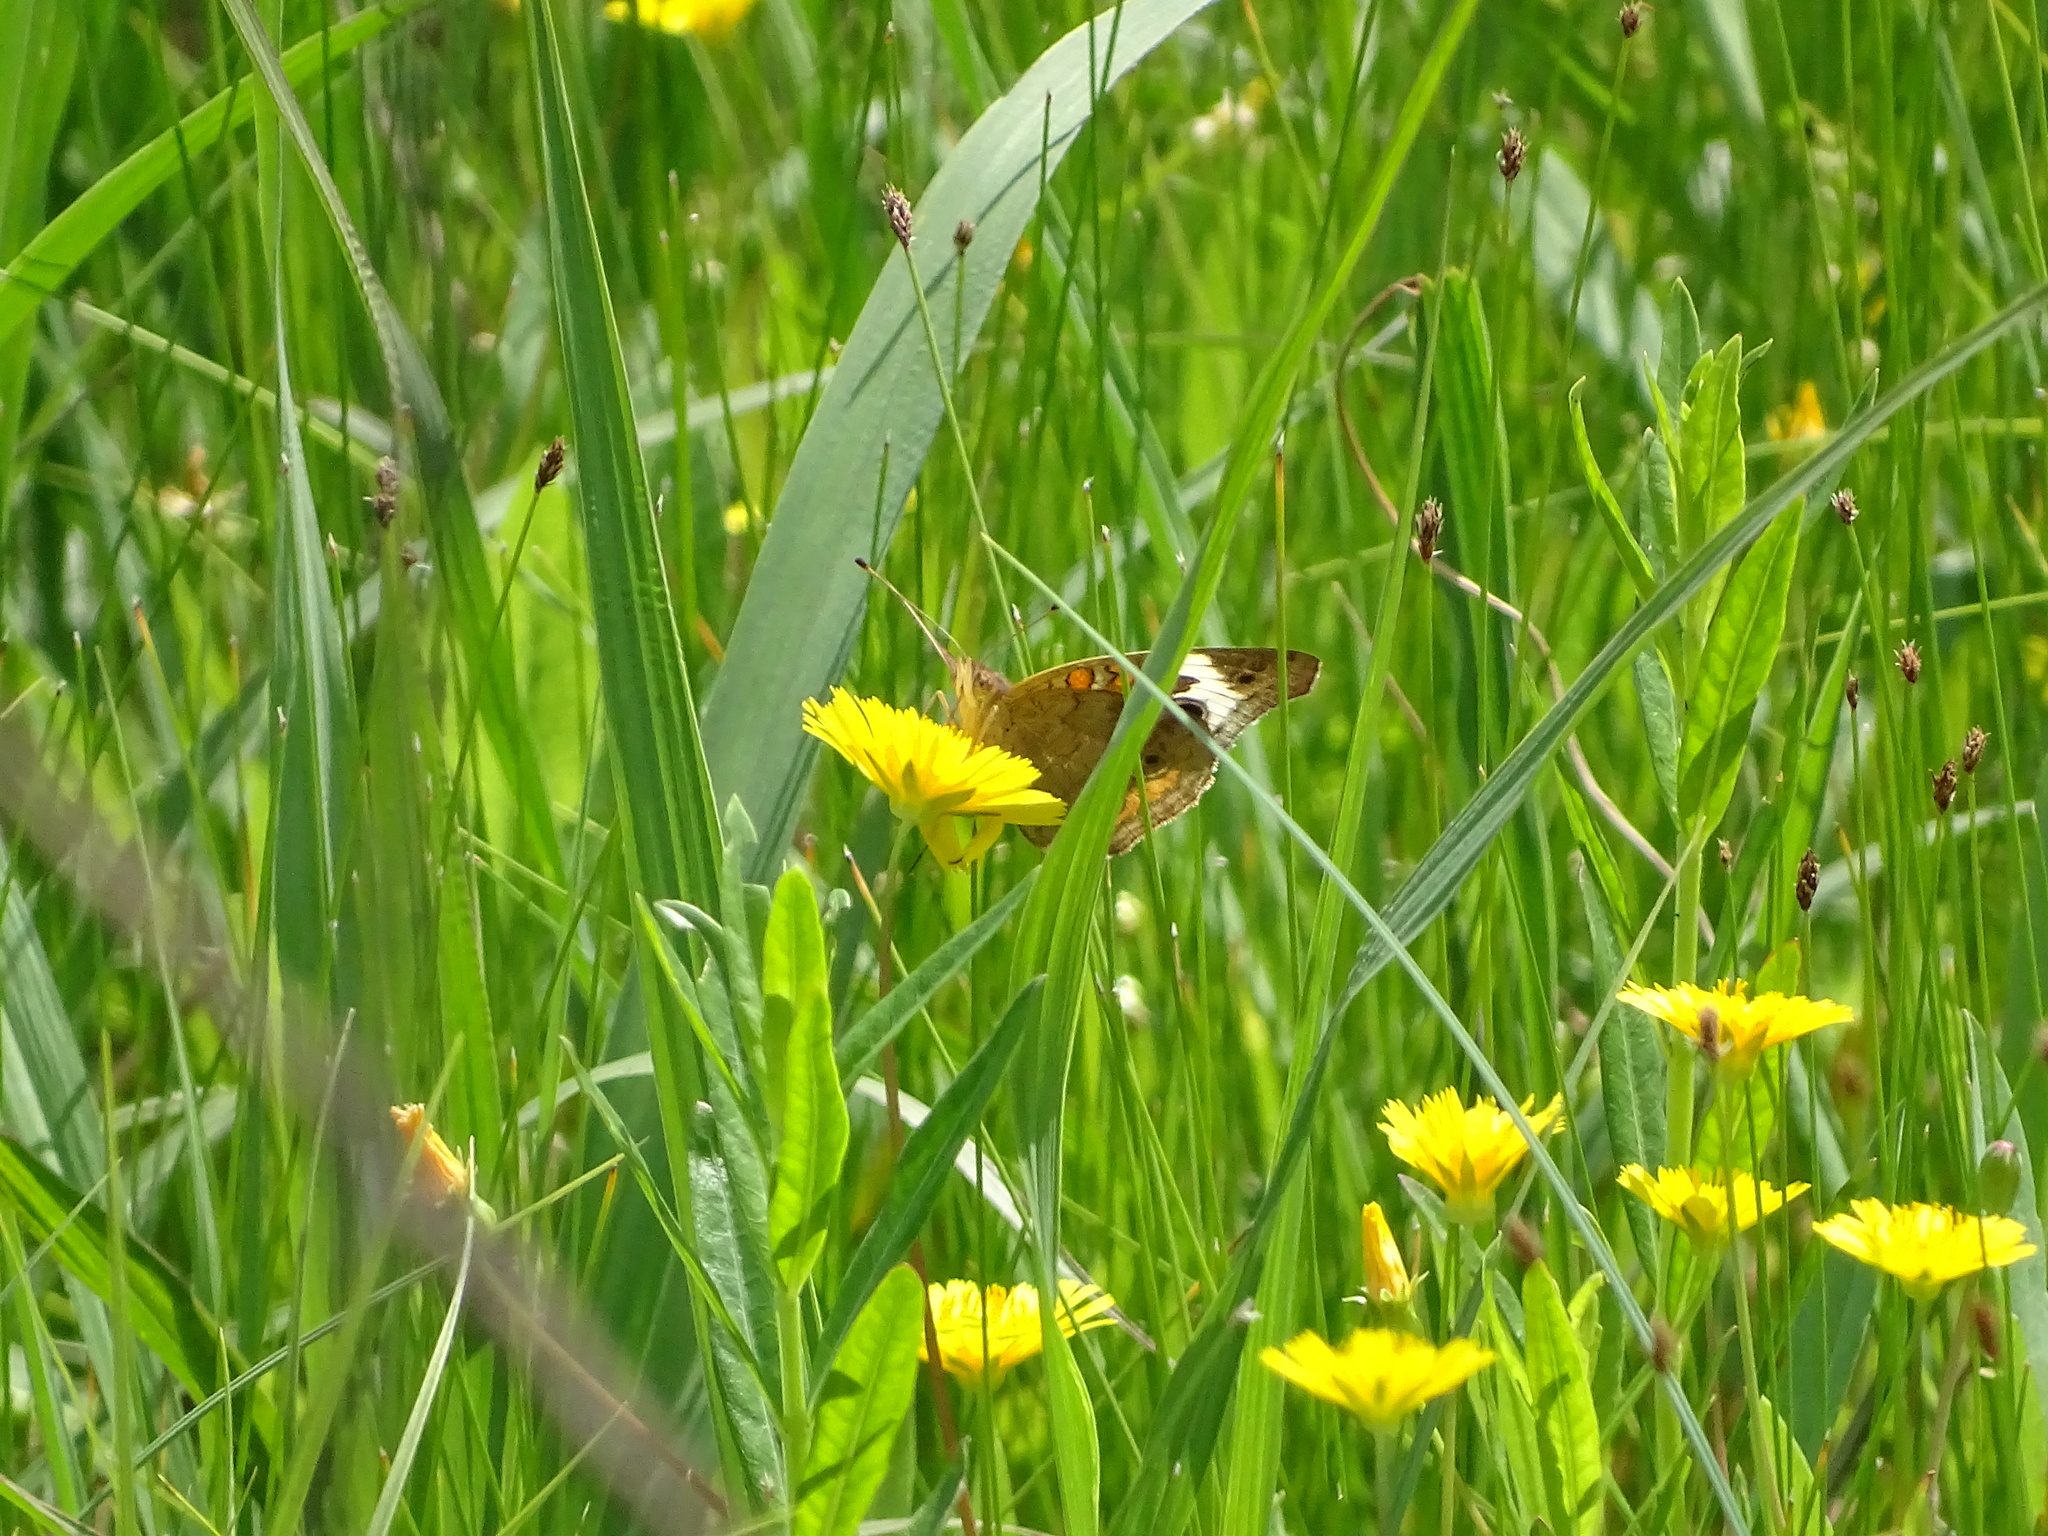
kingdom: Animalia
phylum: Arthropoda
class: Insecta
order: Lepidoptera
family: Nymphalidae
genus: Junonia
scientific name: Junonia coenia
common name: Common buckeye
